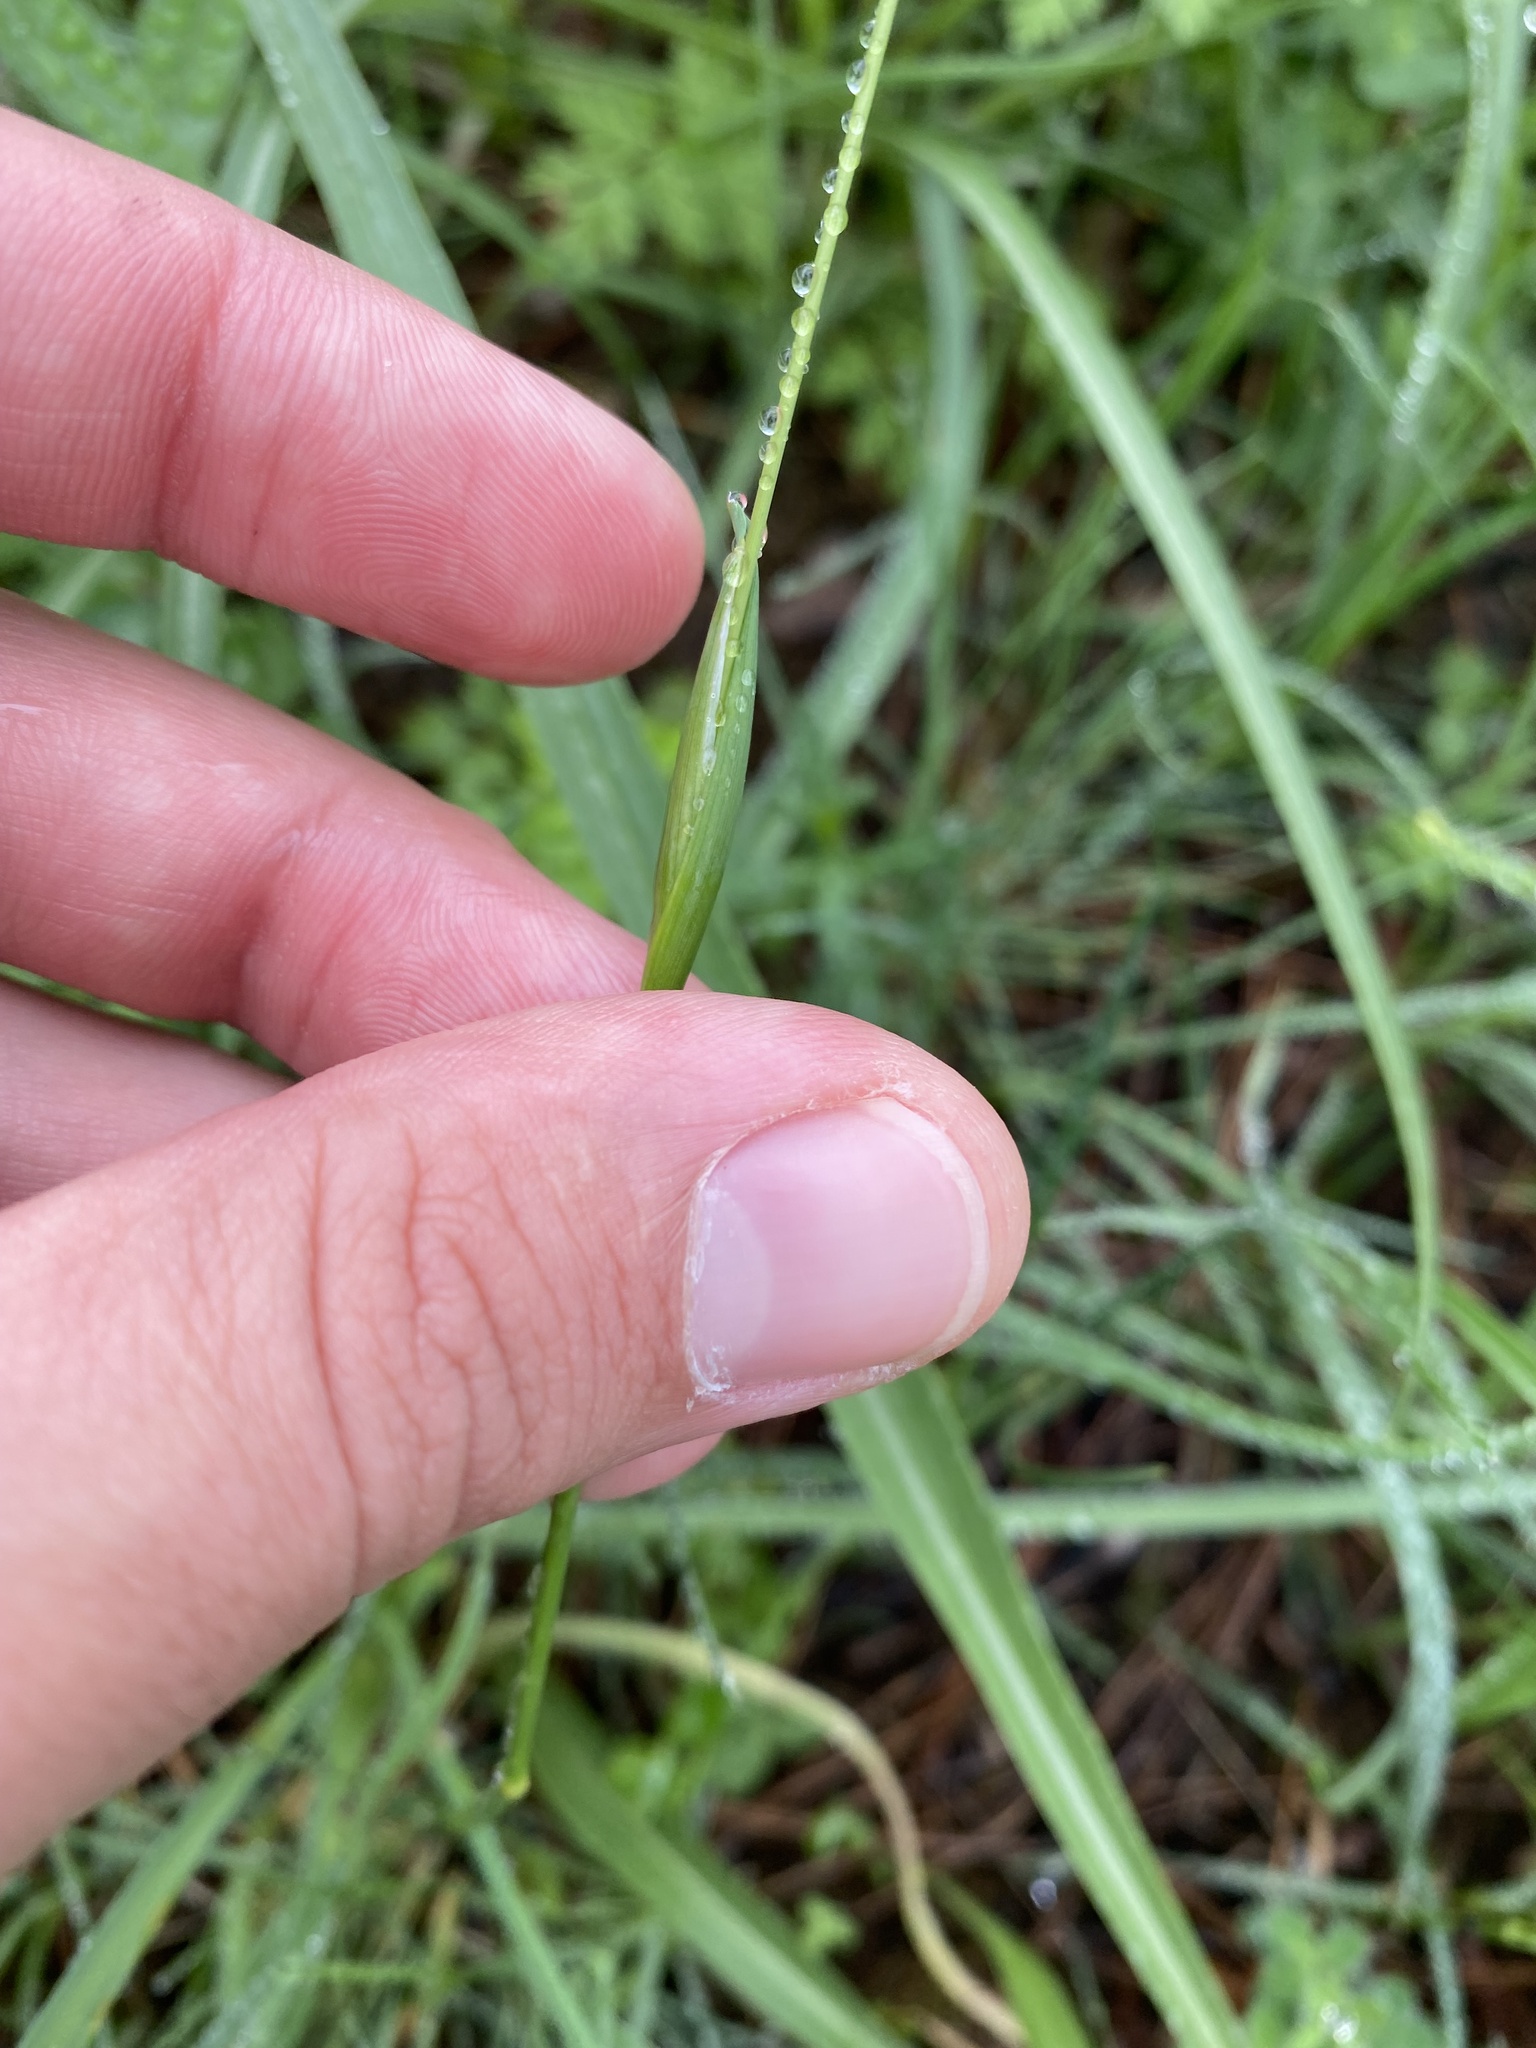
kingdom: Plantae
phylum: Tracheophyta
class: Liliopsida
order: Poales
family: Poaceae
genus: Alopecurus
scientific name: Alopecurus vaginatus
